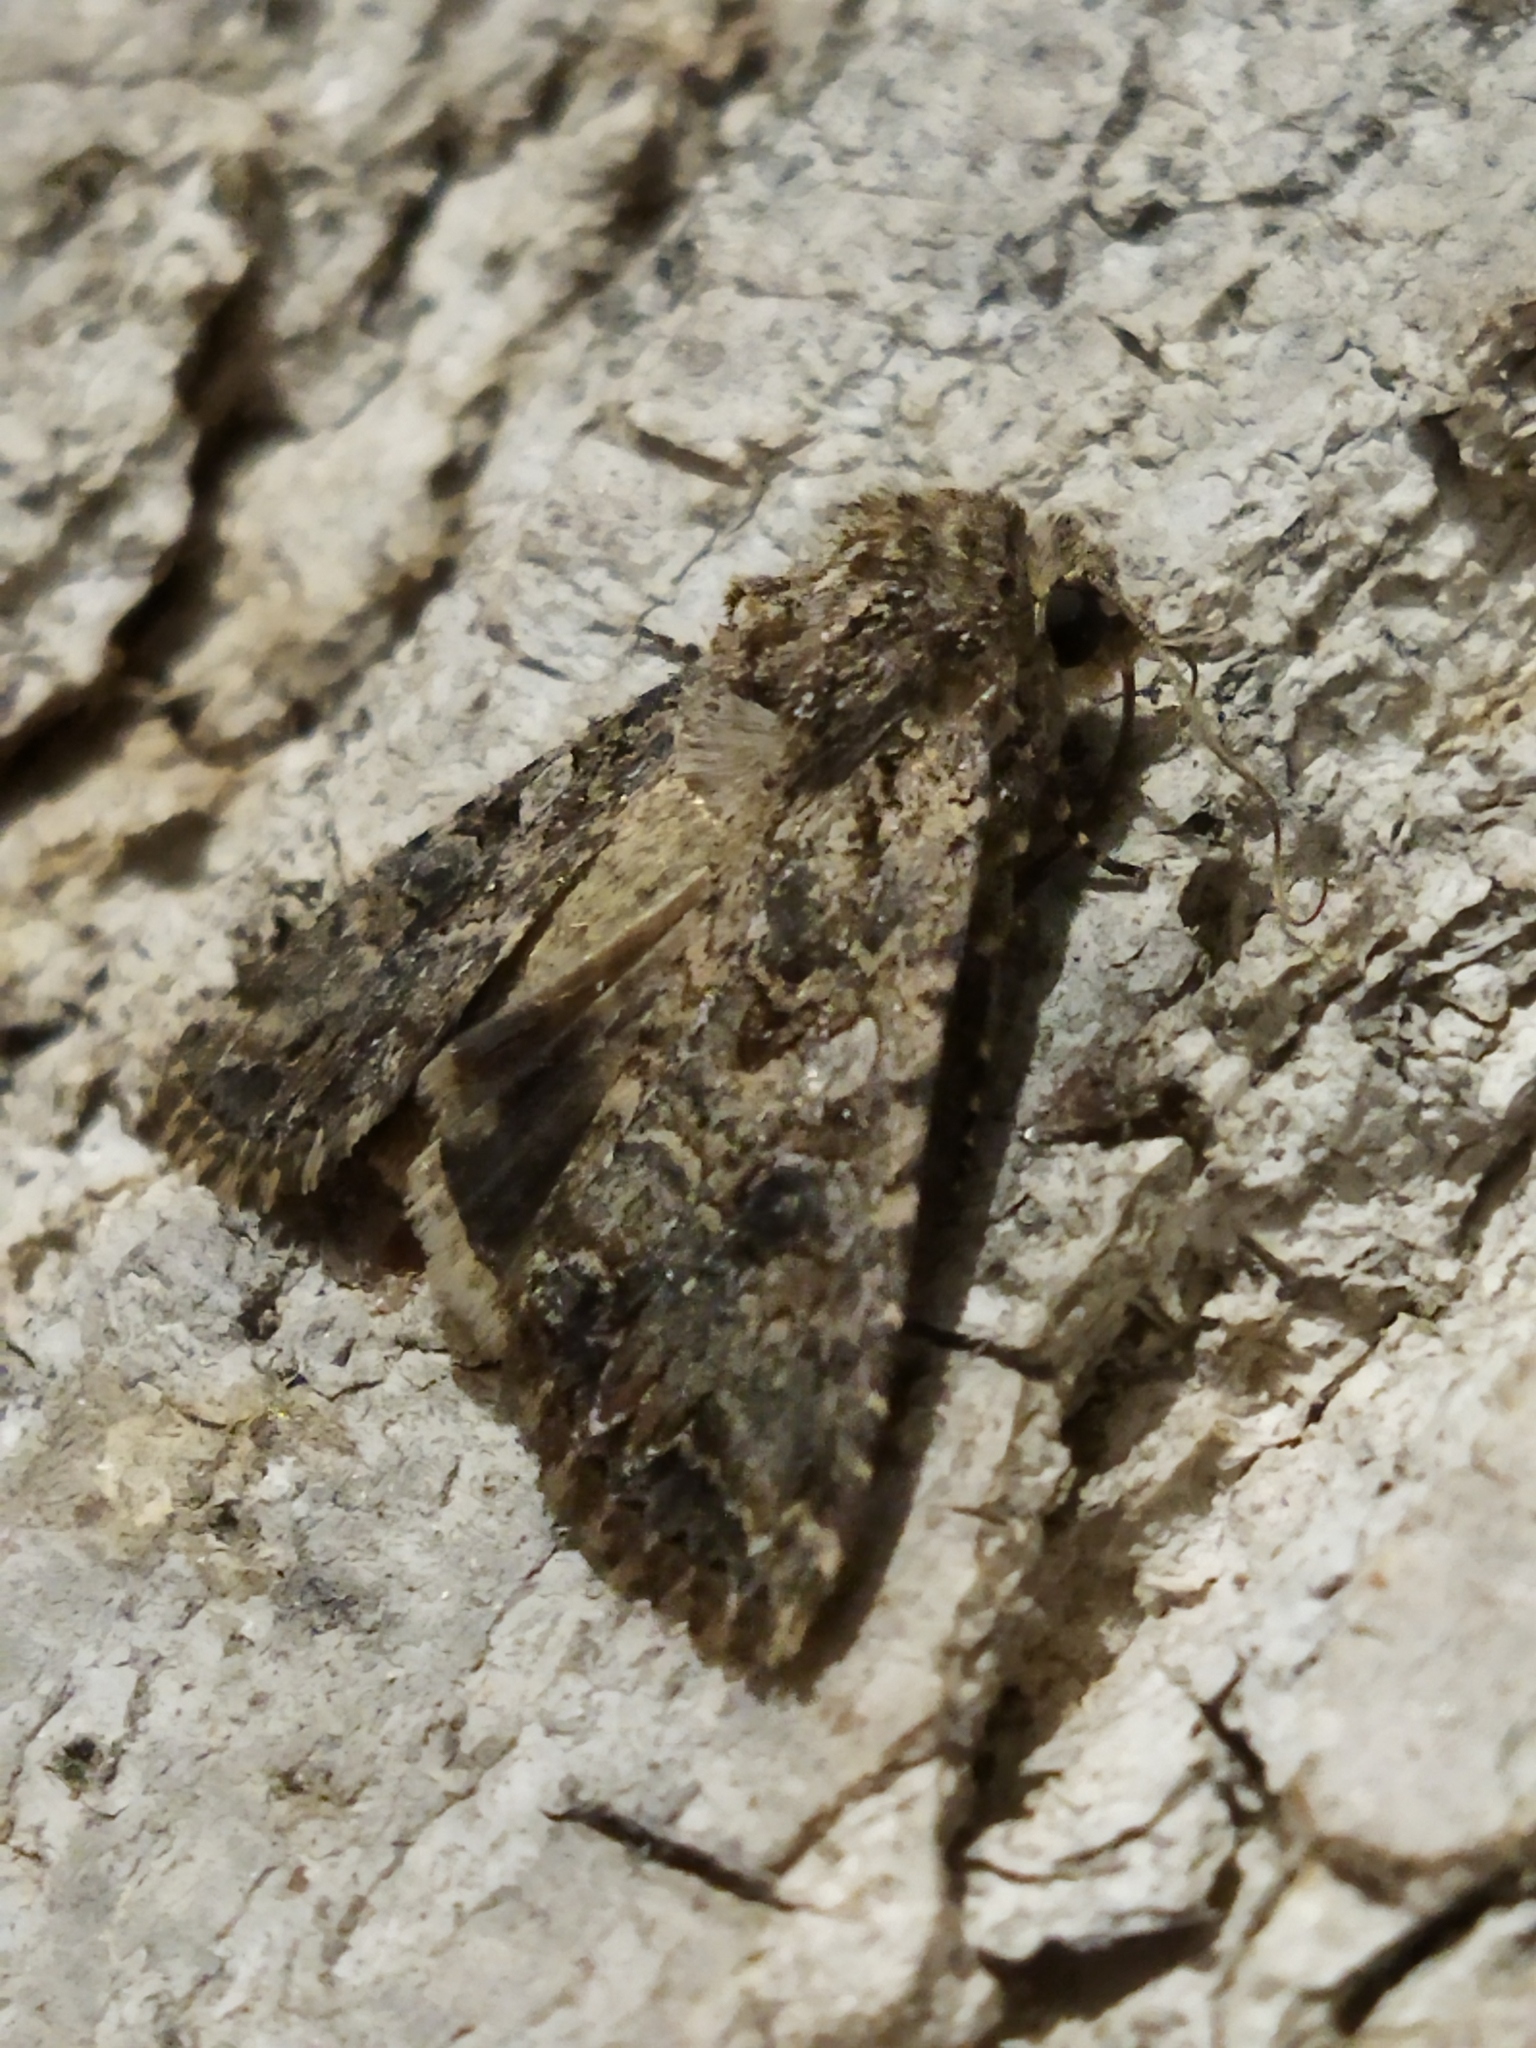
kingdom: Animalia
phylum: Arthropoda
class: Insecta
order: Lepidoptera
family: Noctuidae
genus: Anarta
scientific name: Anarta trifolii
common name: Clover cutworm moth
